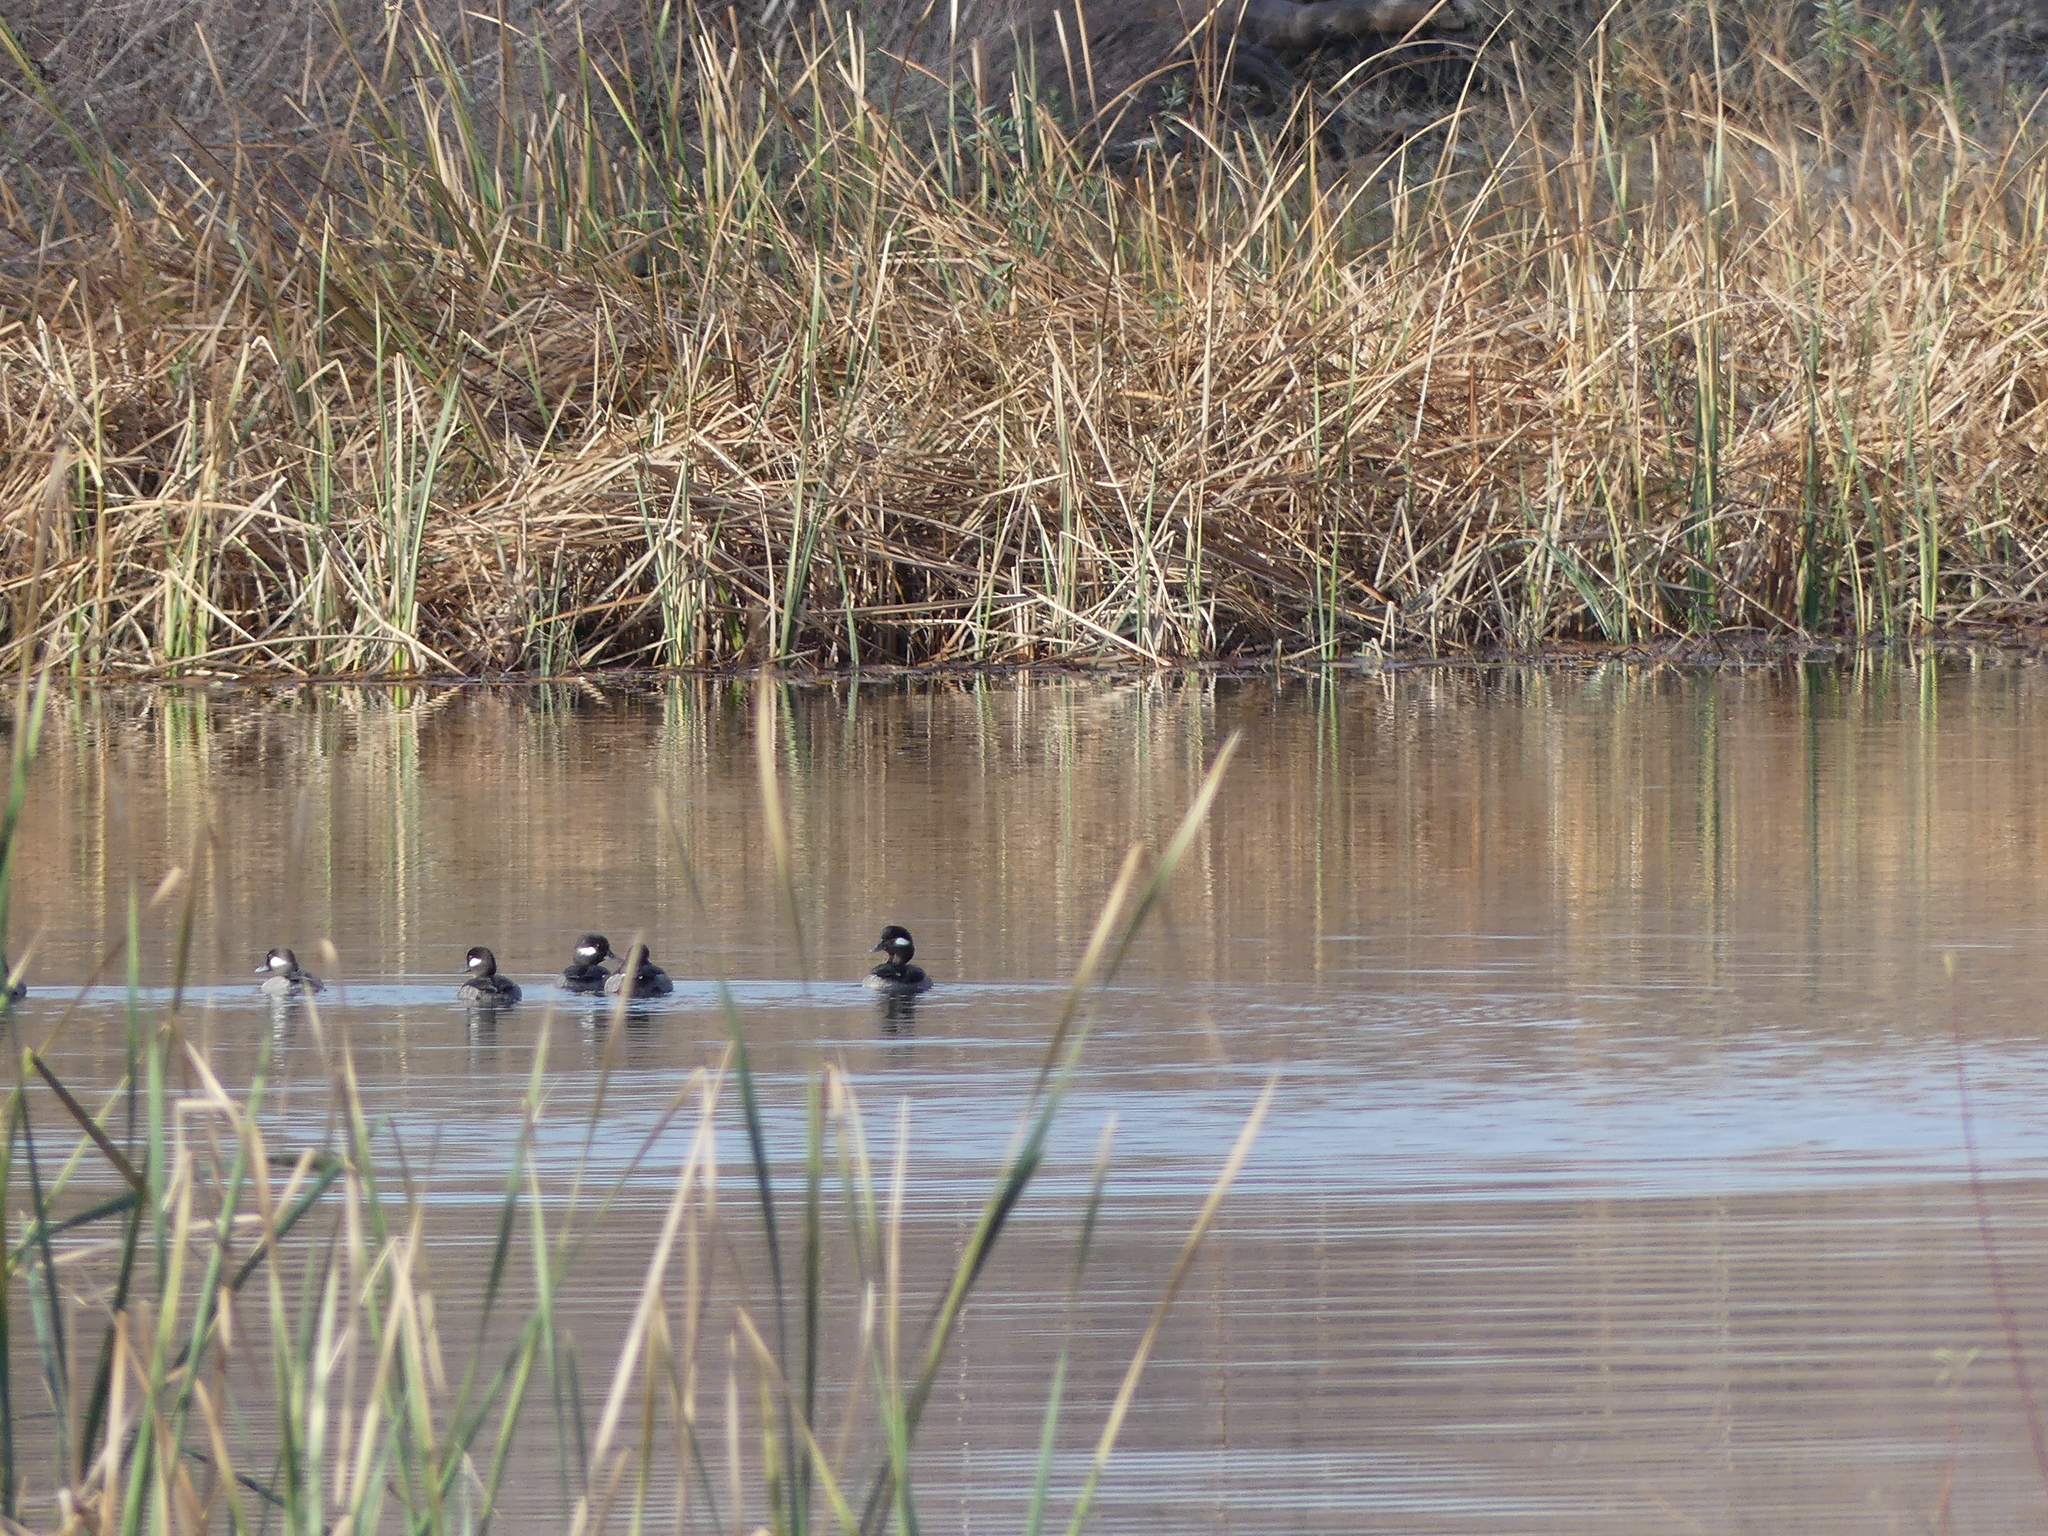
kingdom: Animalia
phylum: Chordata
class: Aves
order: Anseriformes
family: Anatidae
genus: Bucephala
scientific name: Bucephala albeola
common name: Bufflehead
